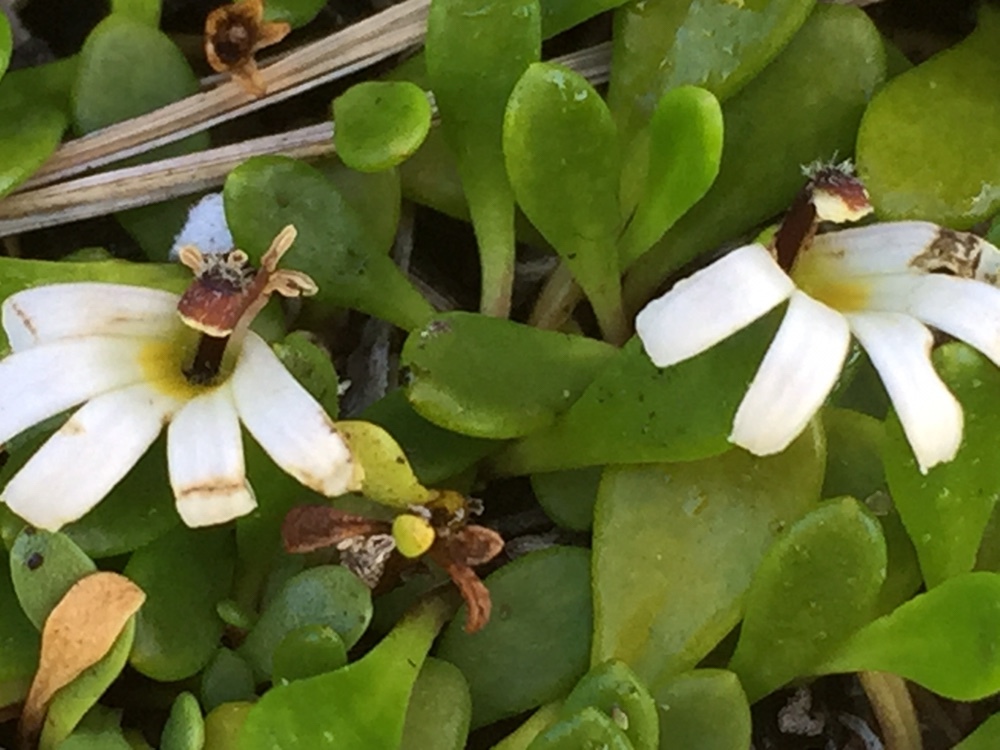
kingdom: Plantae
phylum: Tracheophyta
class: Magnoliopsida
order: Asterales
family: Goodeniaceae
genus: Goodenia
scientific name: Goodenia radicans
